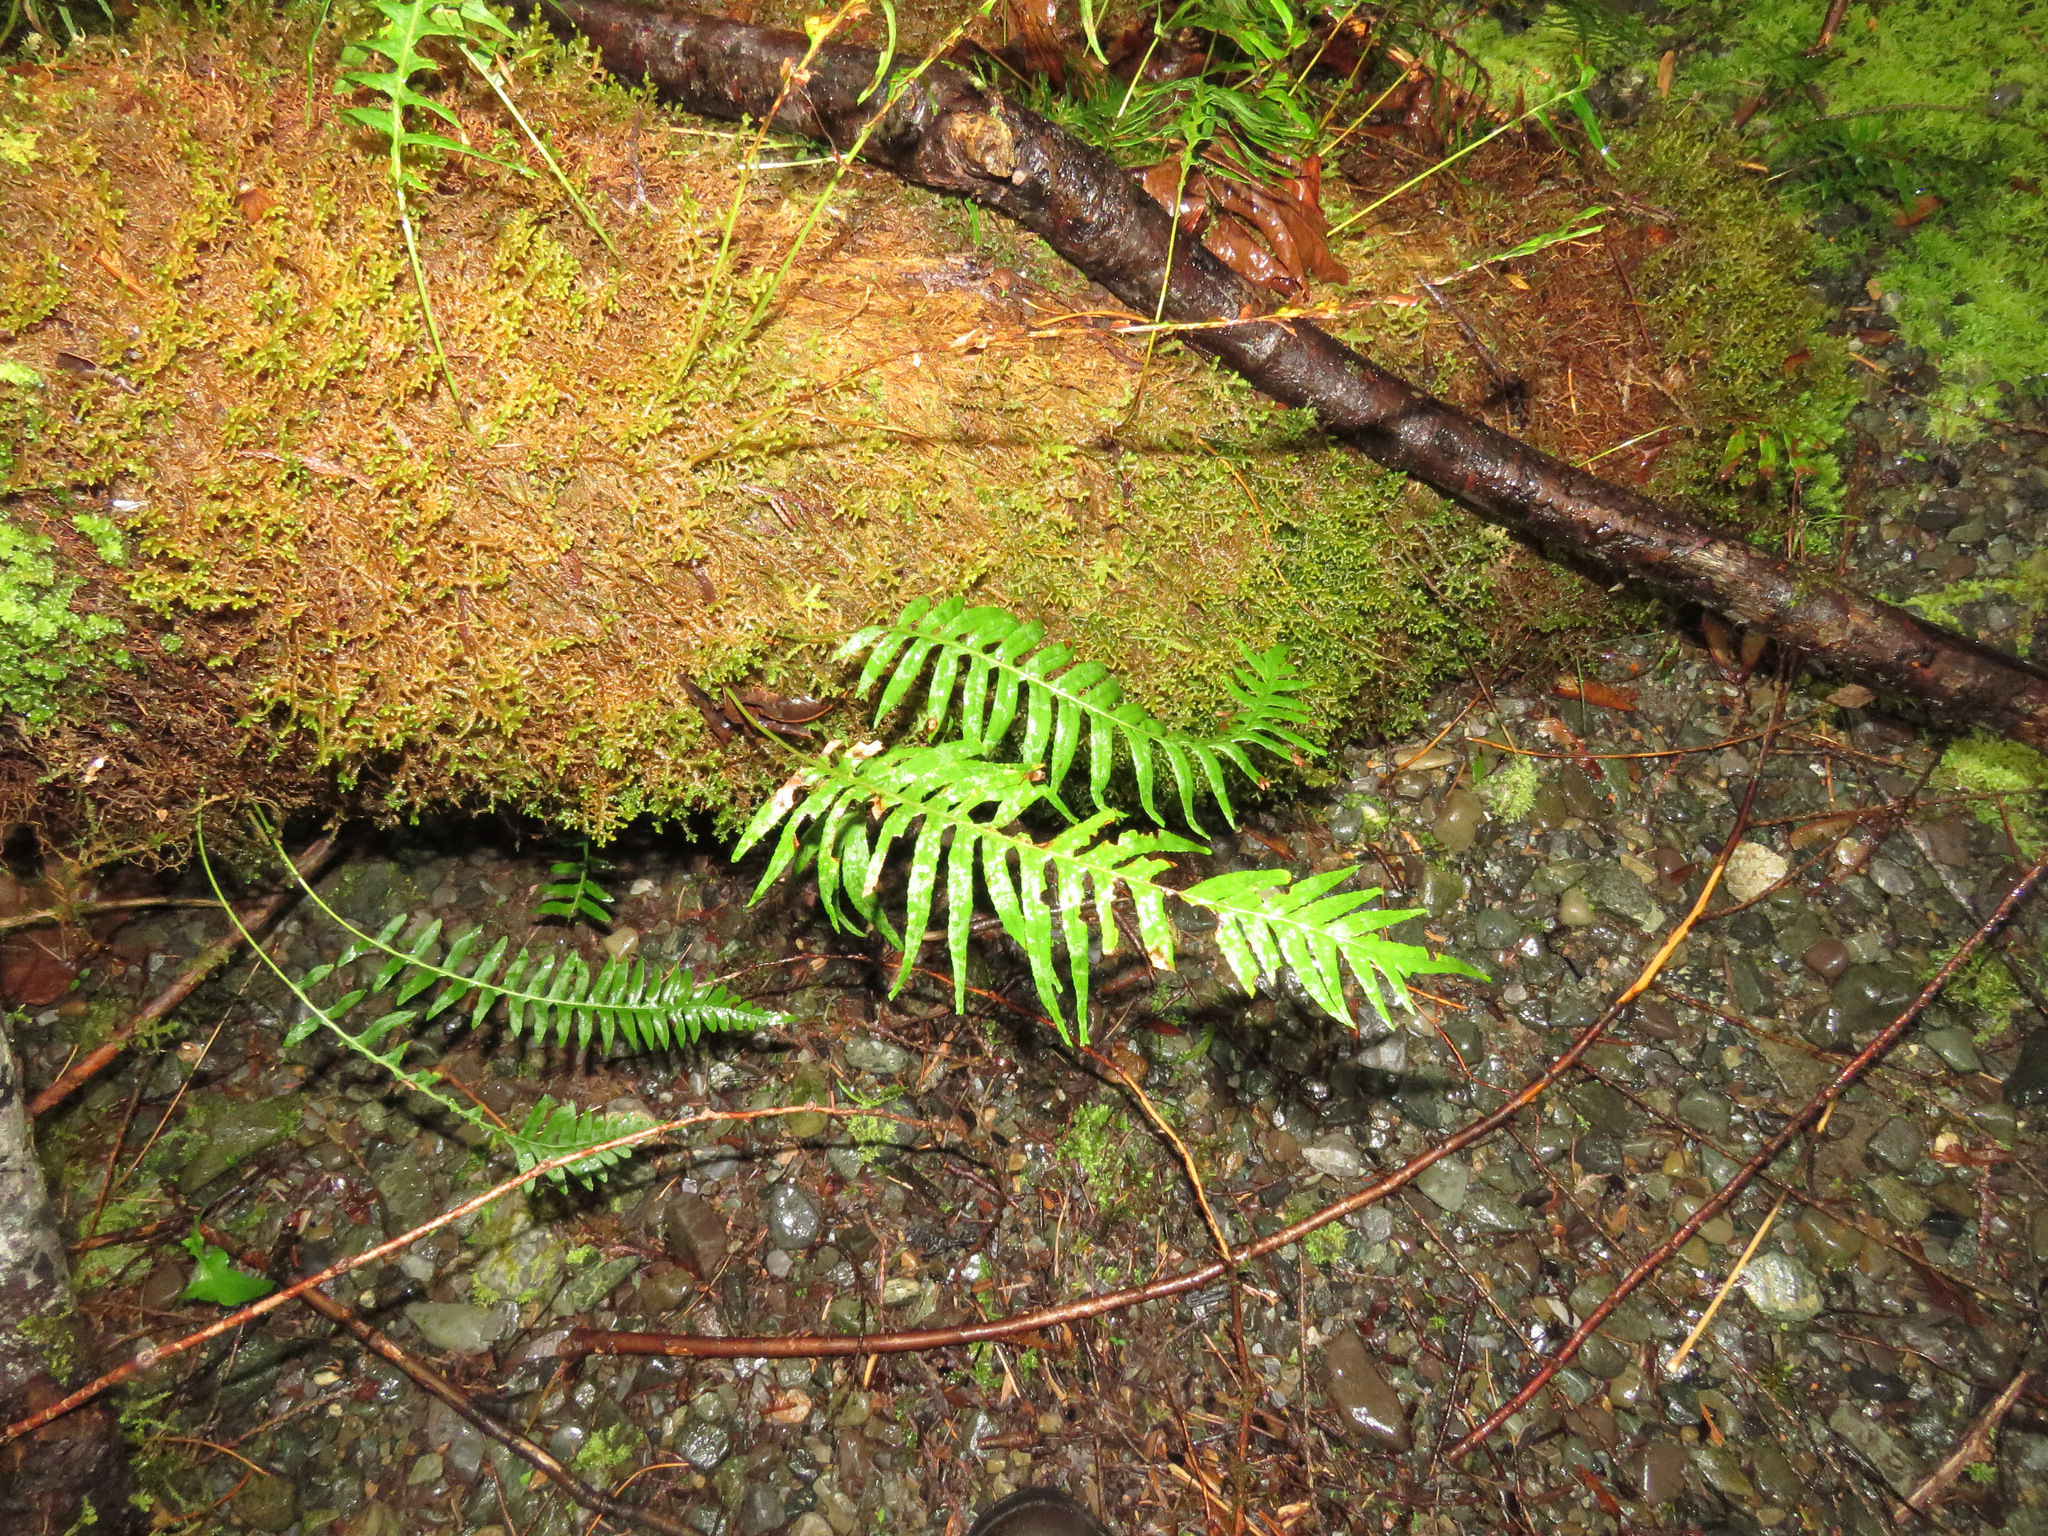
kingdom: Plantae
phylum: Tracheophyta
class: Polypodiopsida
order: Polypodiales
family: Polypodiaceae
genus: Polypodium
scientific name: Polypodium glycyrrhiza
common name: Licorice fern
